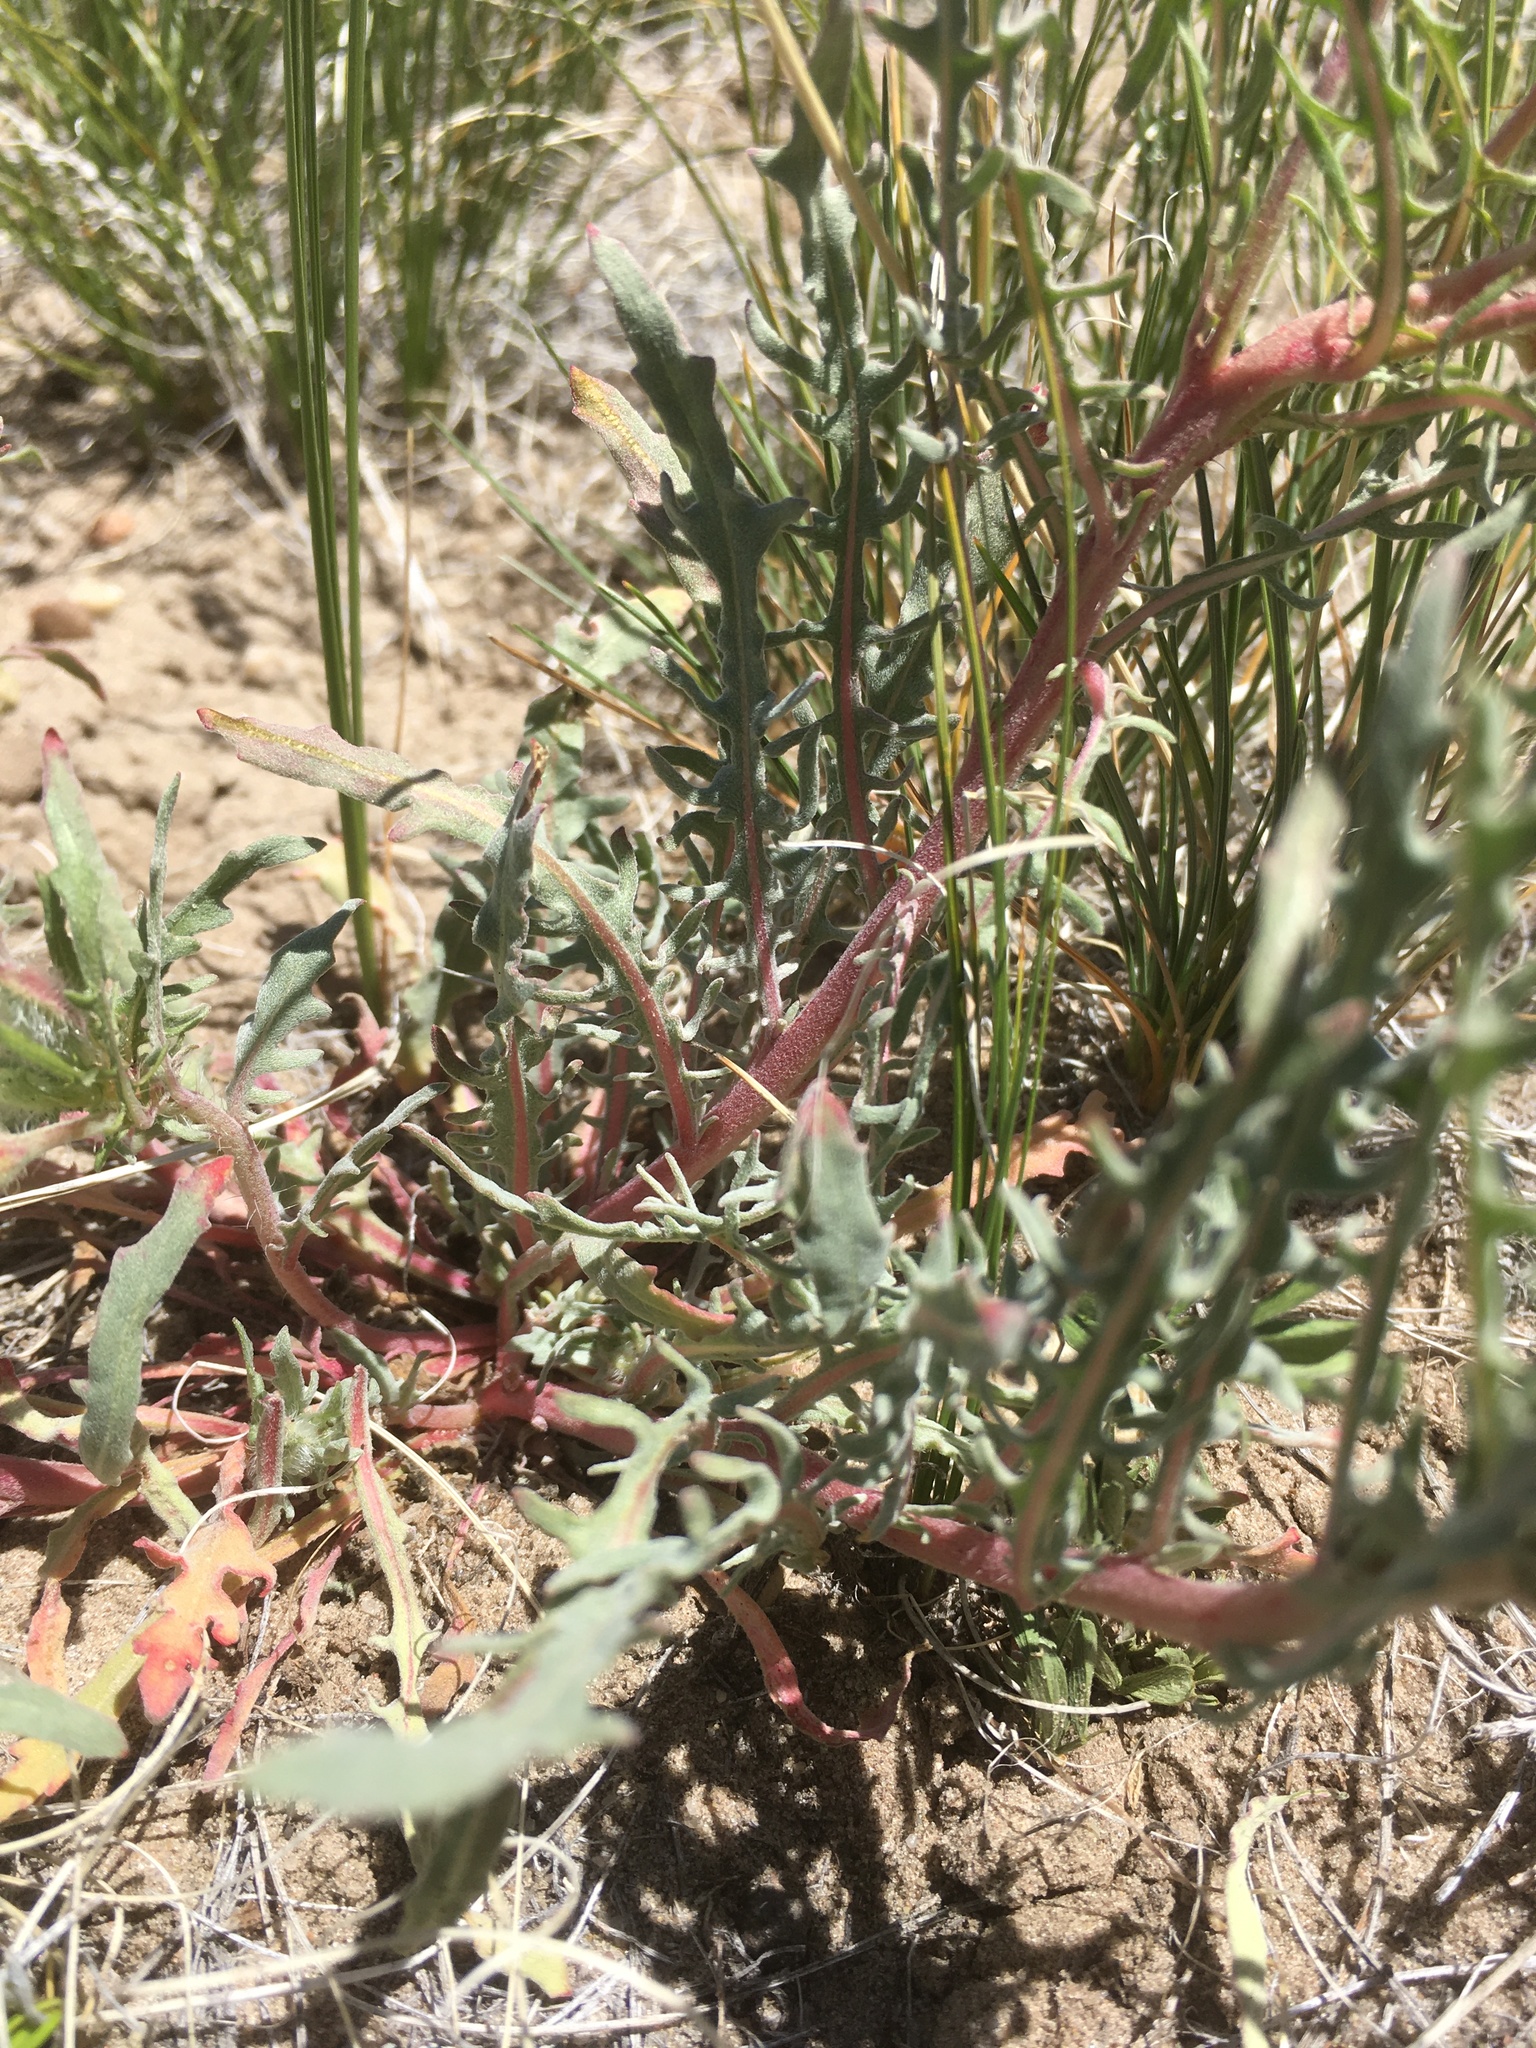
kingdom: Plantae
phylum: Tracheophyta
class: Magnoliopsida
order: Myrtales
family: Onagraceae
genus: Oenothera
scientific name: Oenothera pallida
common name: Pale evening-primrose
